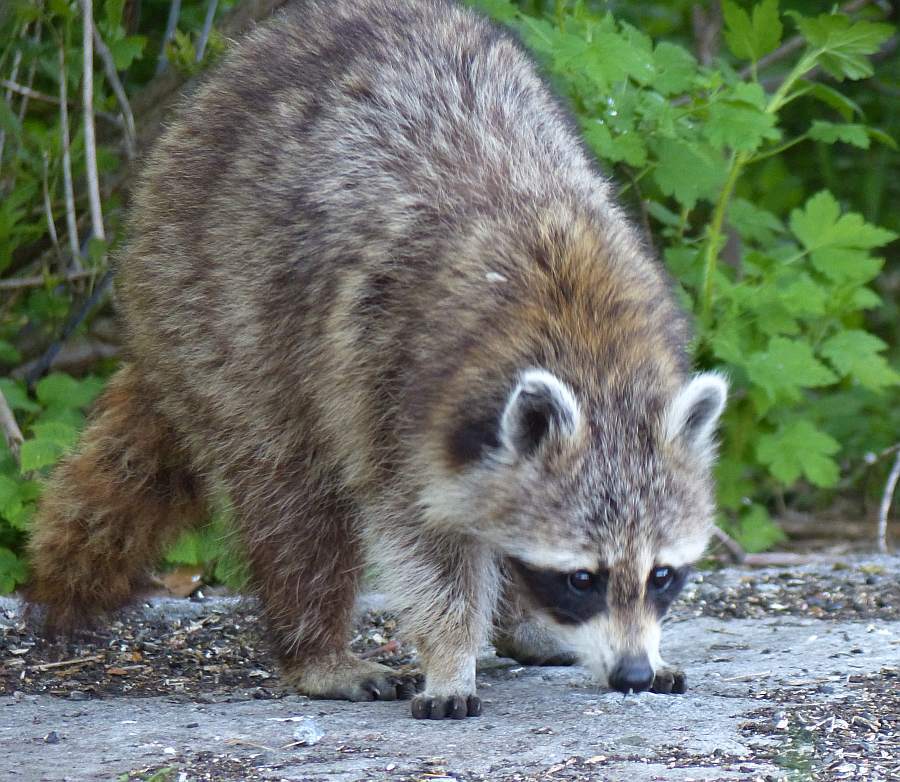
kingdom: Animalia
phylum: Chordata
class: Mammalia
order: Carnivora
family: Procyonidae
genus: Procyon
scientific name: Procyon lotor
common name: Raccoon
